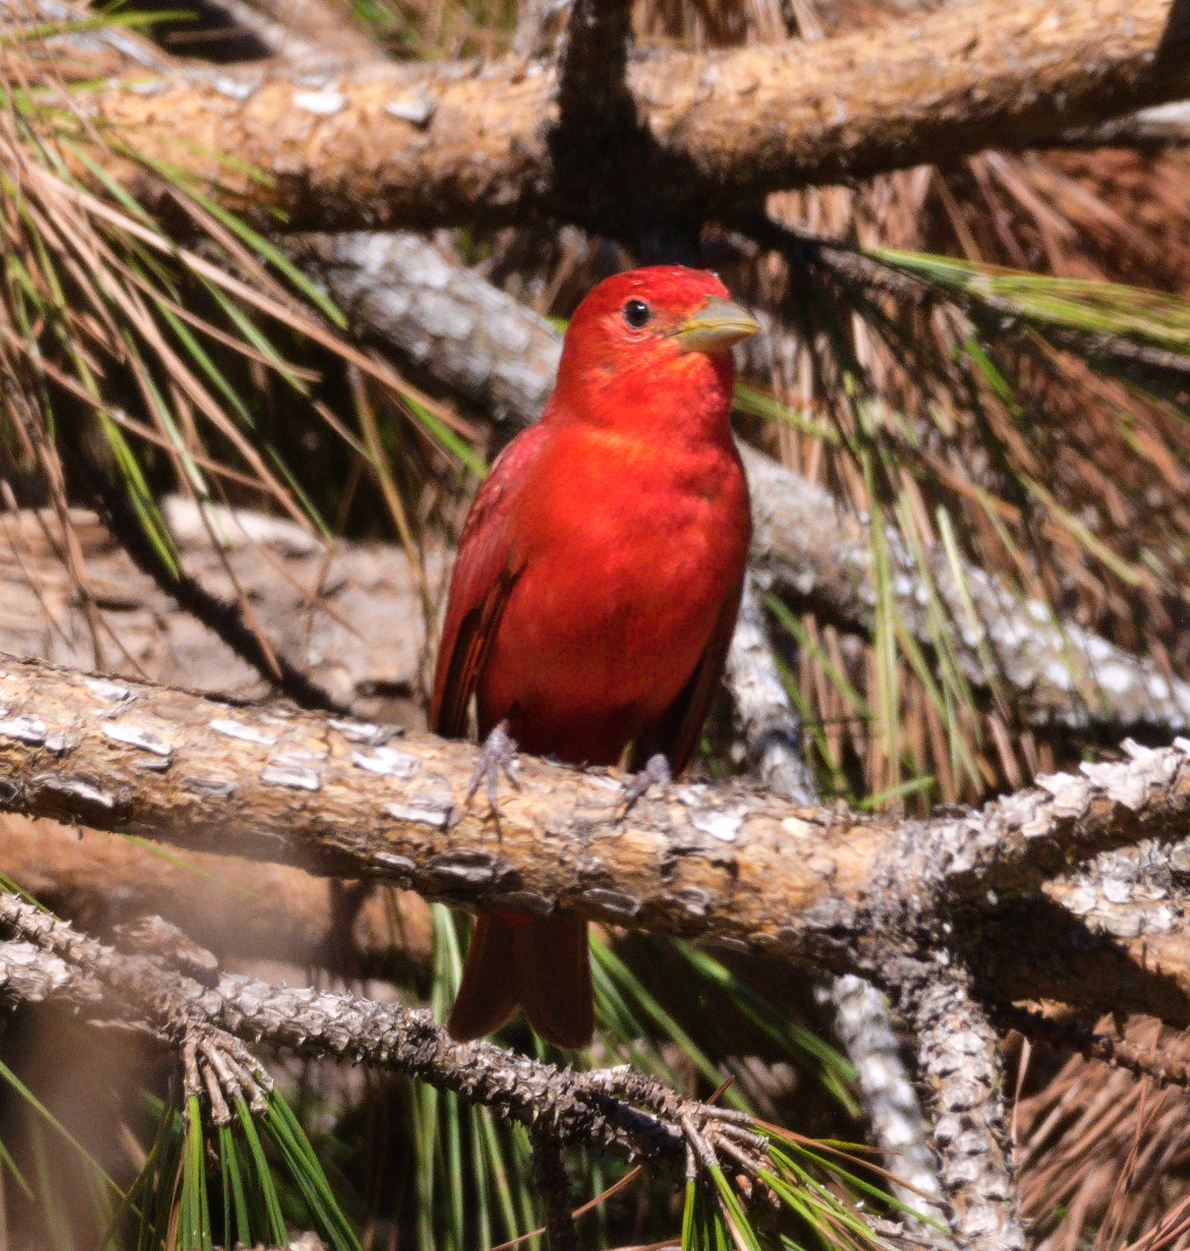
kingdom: Animalia
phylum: Chordata
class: Aves
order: Passeriformes
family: Cardinalidae
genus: Piranga
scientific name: Piranga rubra
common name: Summer tanager
